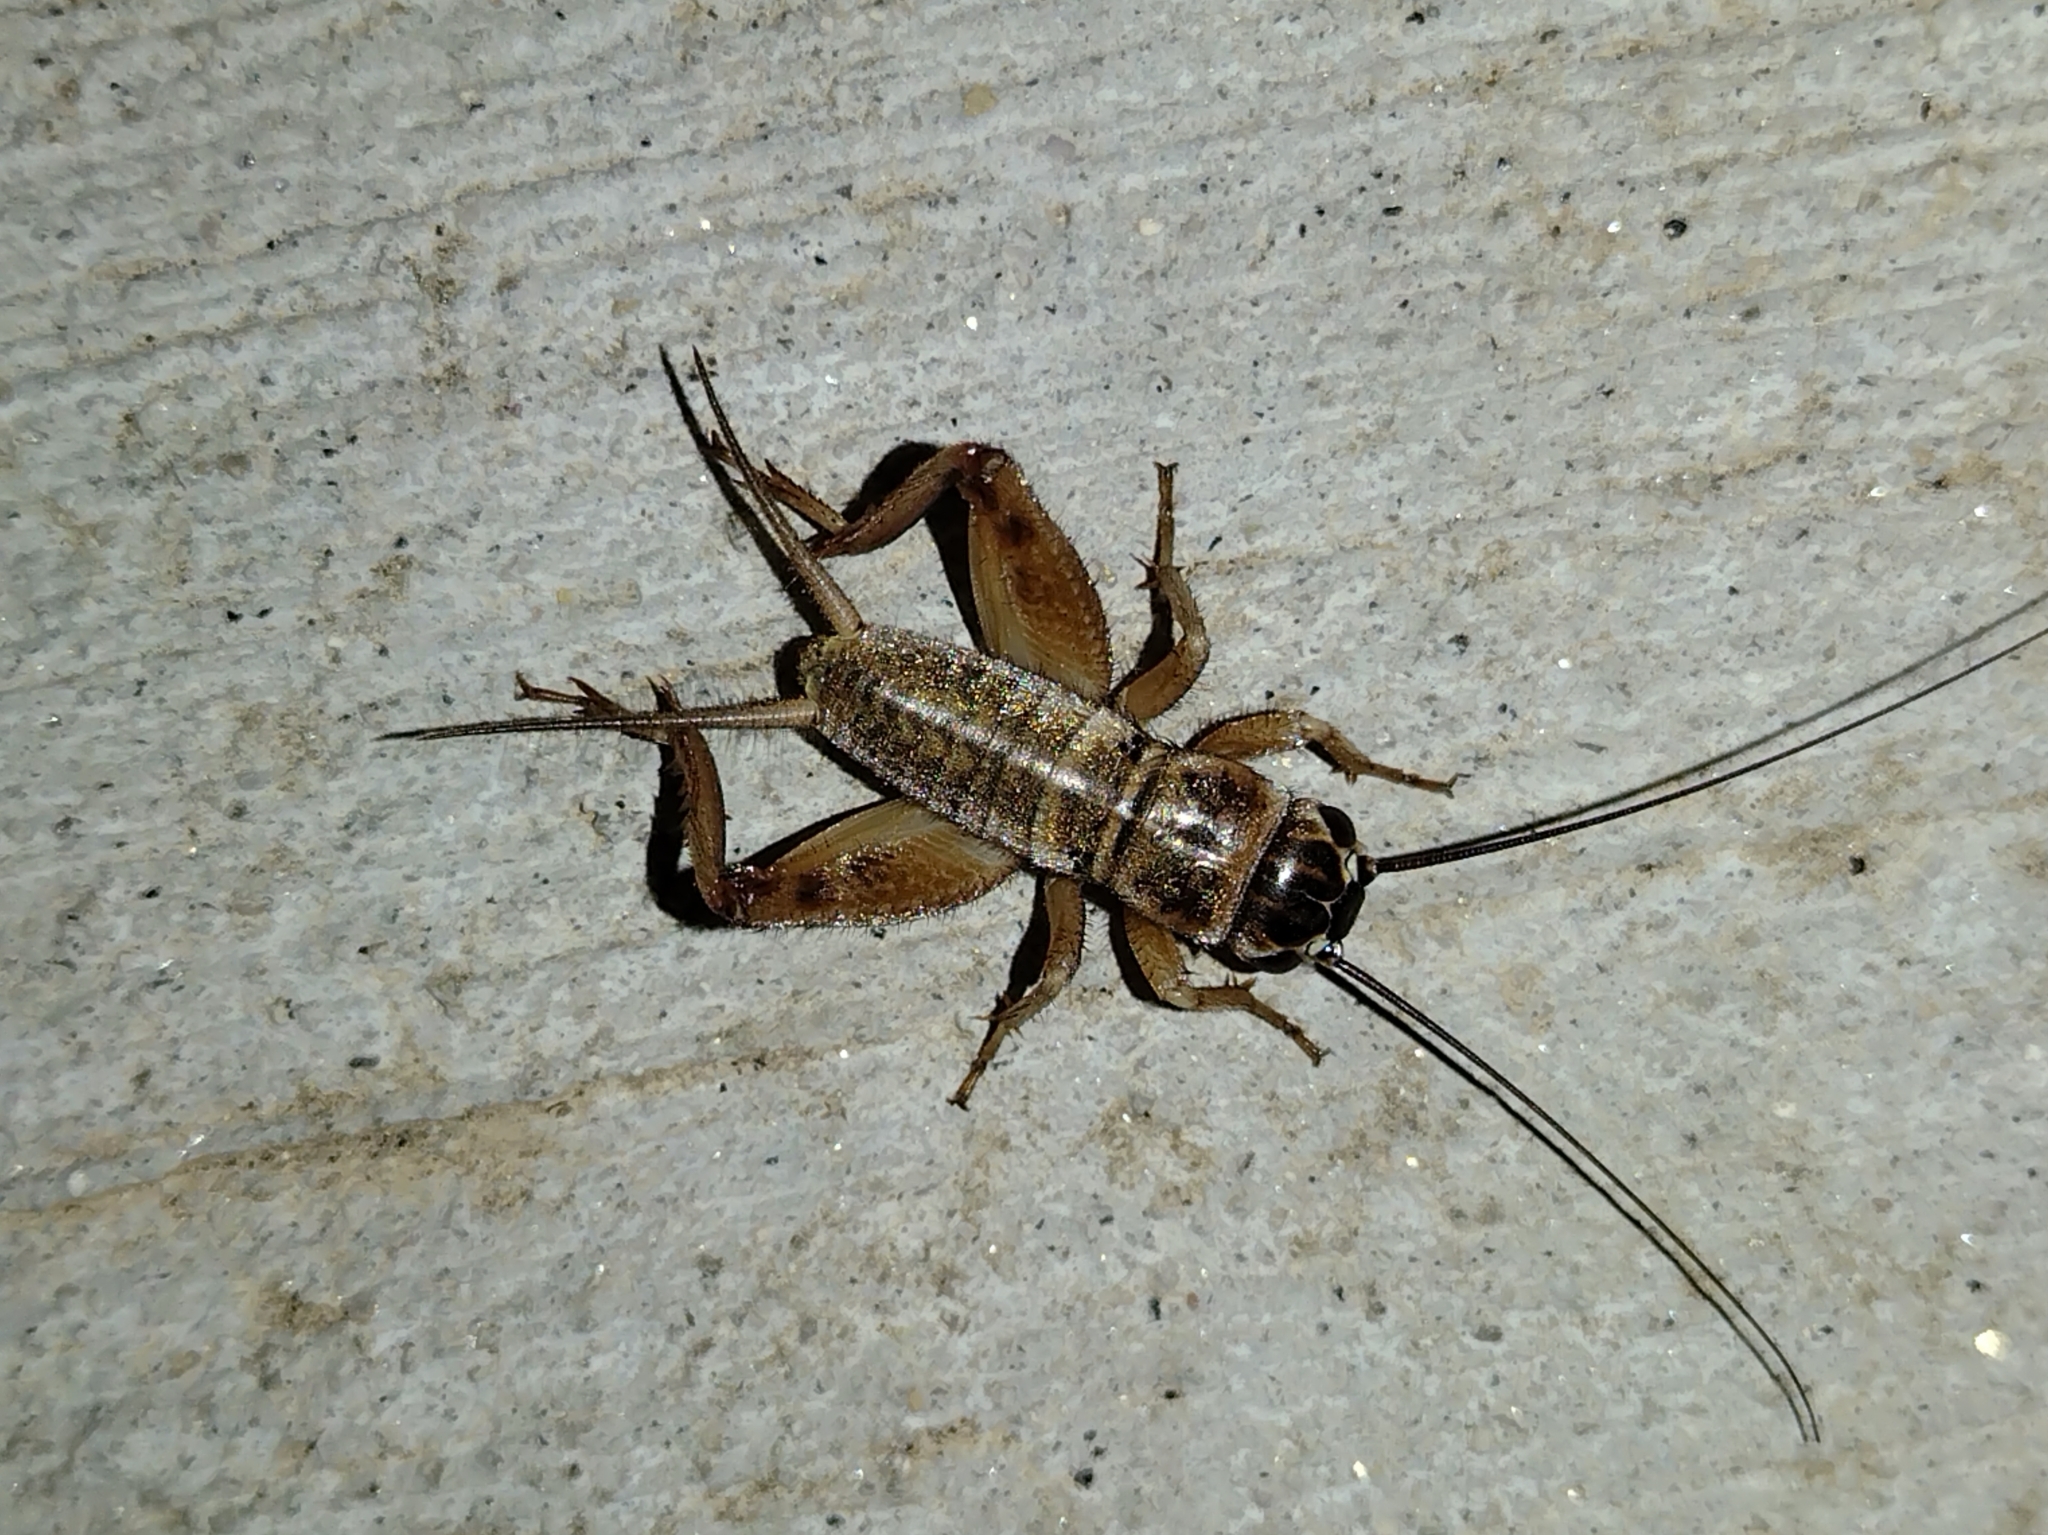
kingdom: Animalia
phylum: Arthropoda
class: Insecta
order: Orthoptera
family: Gryllidae
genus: Gryllus
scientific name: Gryllus
